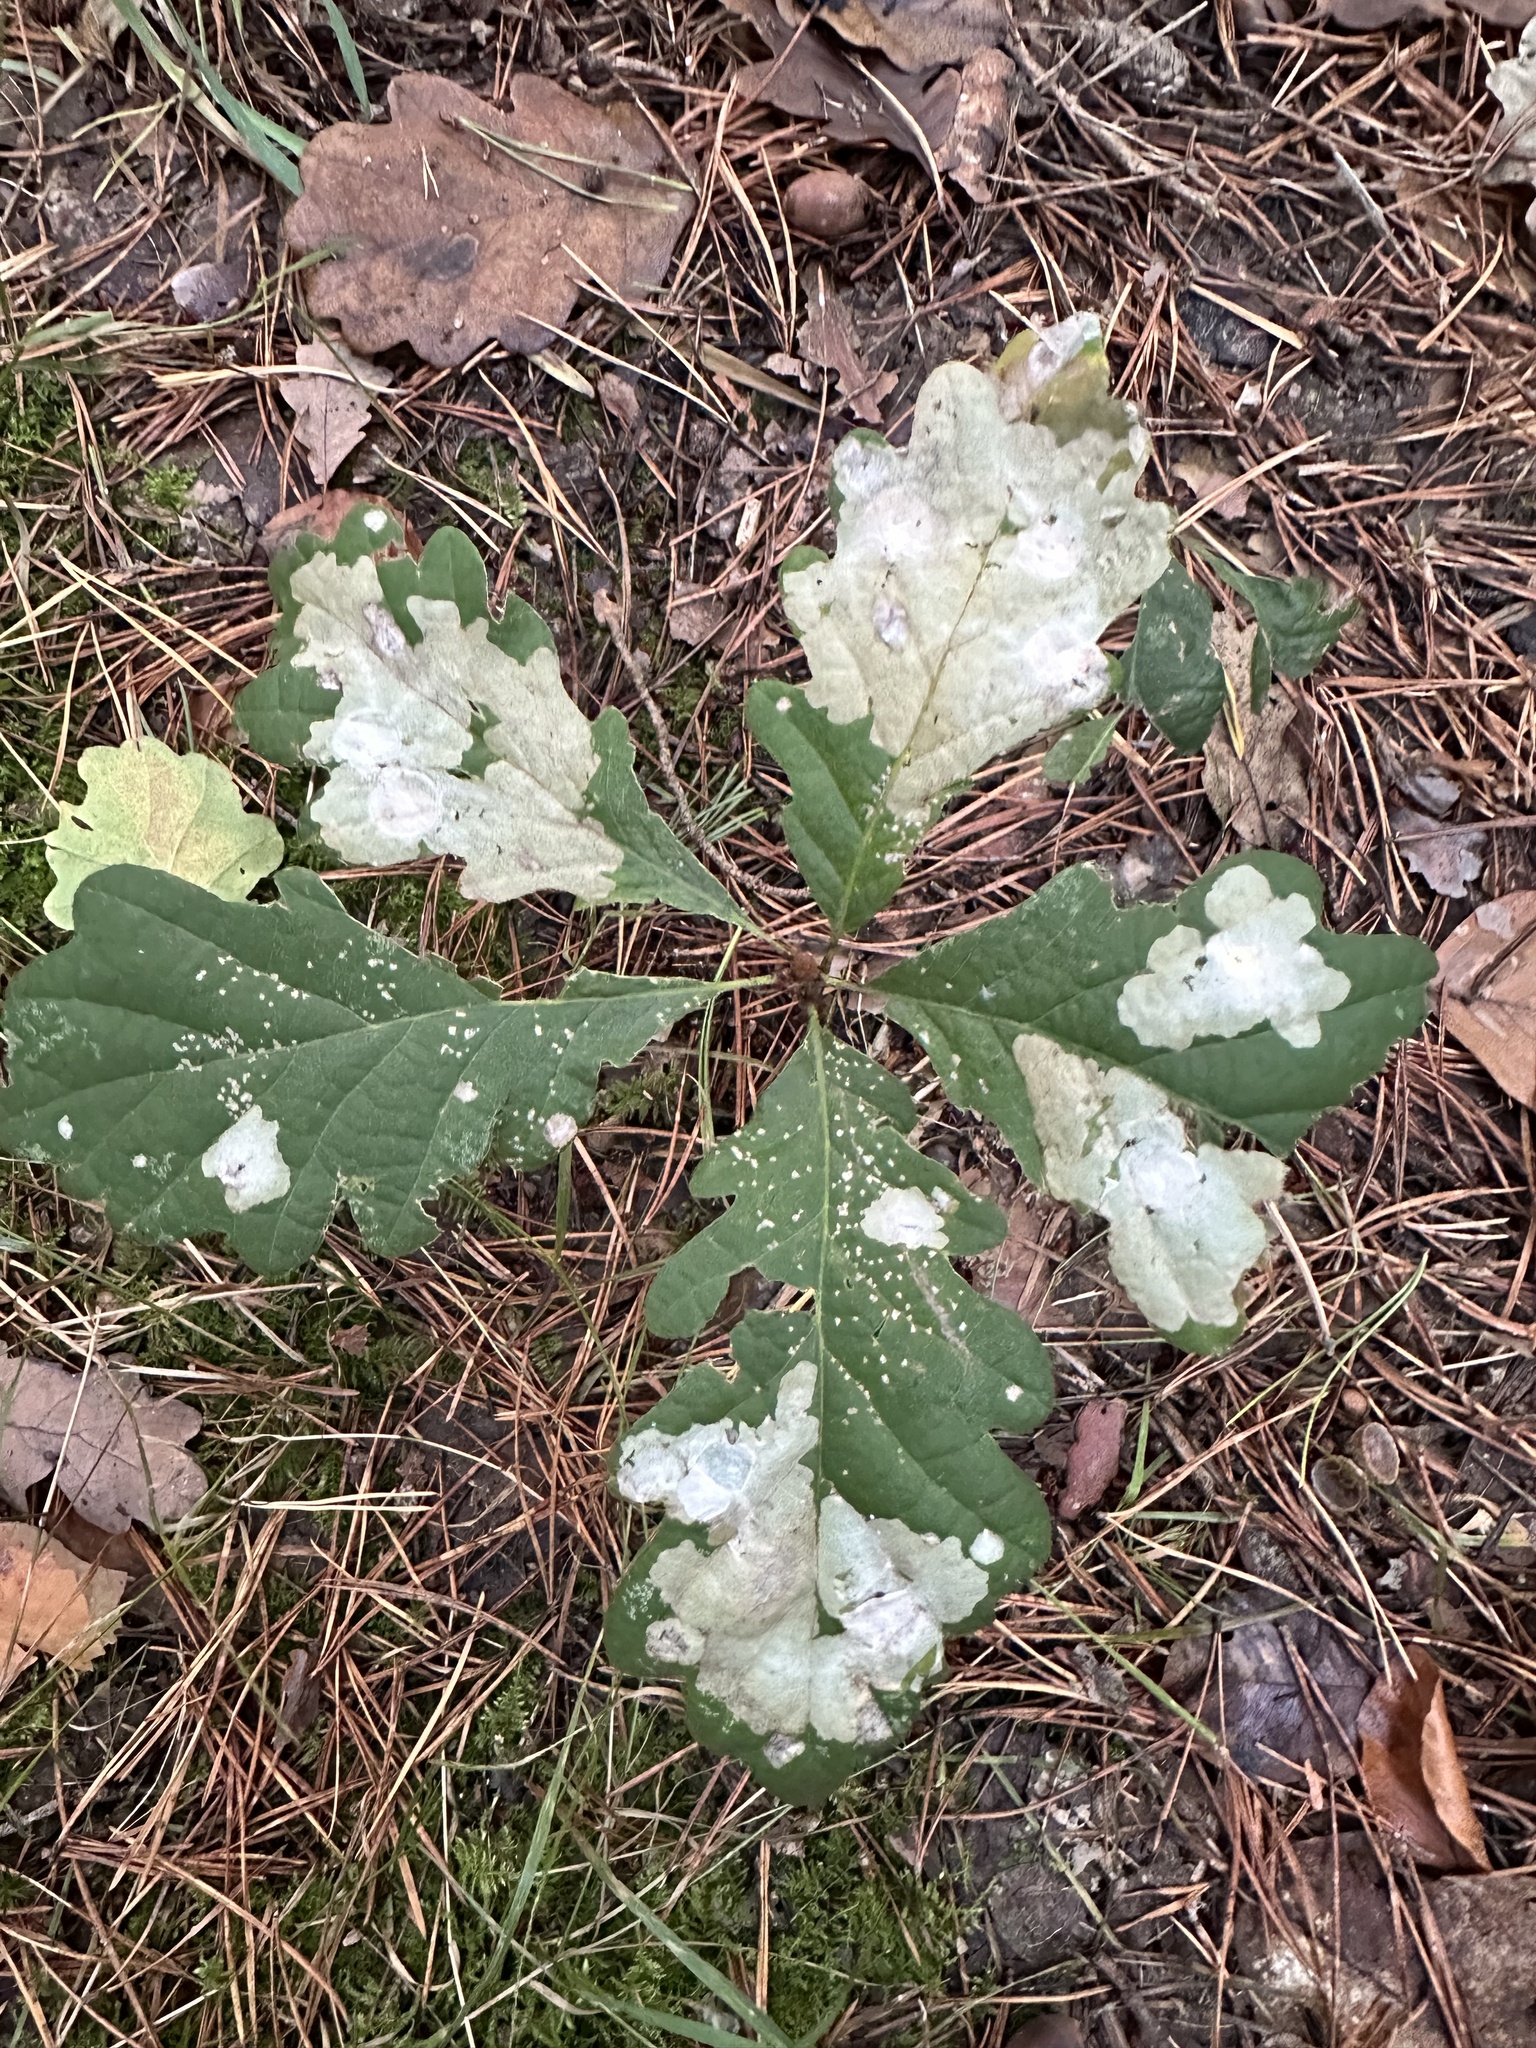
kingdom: Animalia
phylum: Arthropoda
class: Insecta
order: Lepidoptera
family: Tischeriidae
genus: Tischeria
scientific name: Tischeria ekebladella
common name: Oak carl
